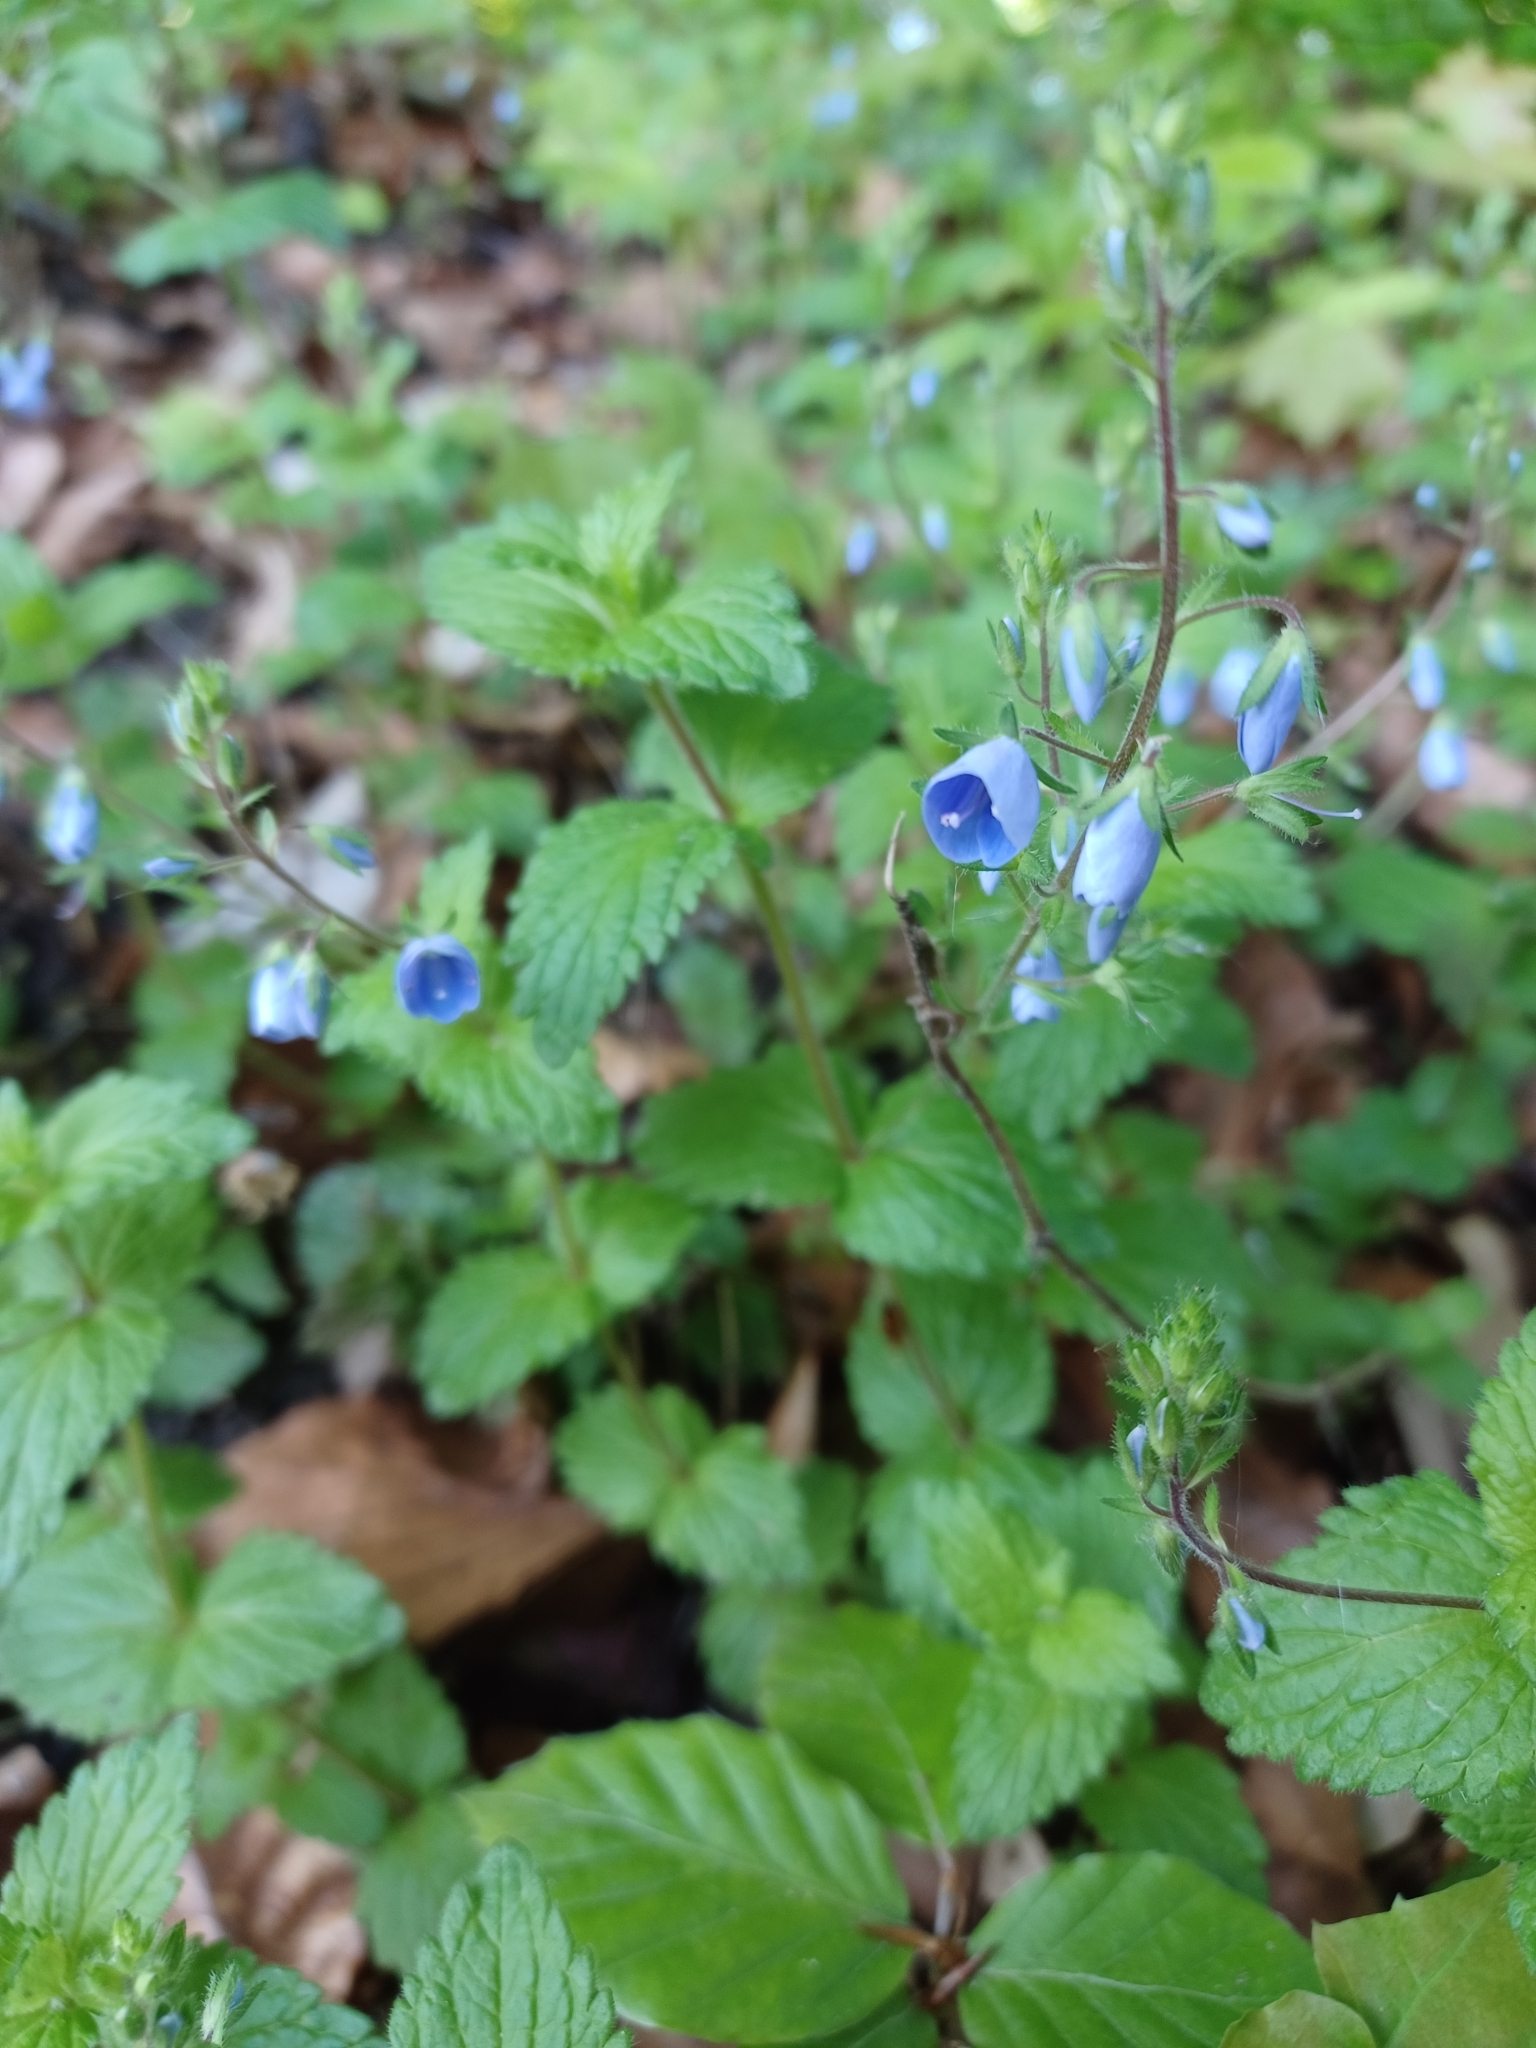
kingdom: Plantae
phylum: Tracheophyta
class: Magnoliopsida
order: Lamiales
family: Plantaginaceae
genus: Veronica
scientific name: Veronica chamaedrys
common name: Germander speedwell
